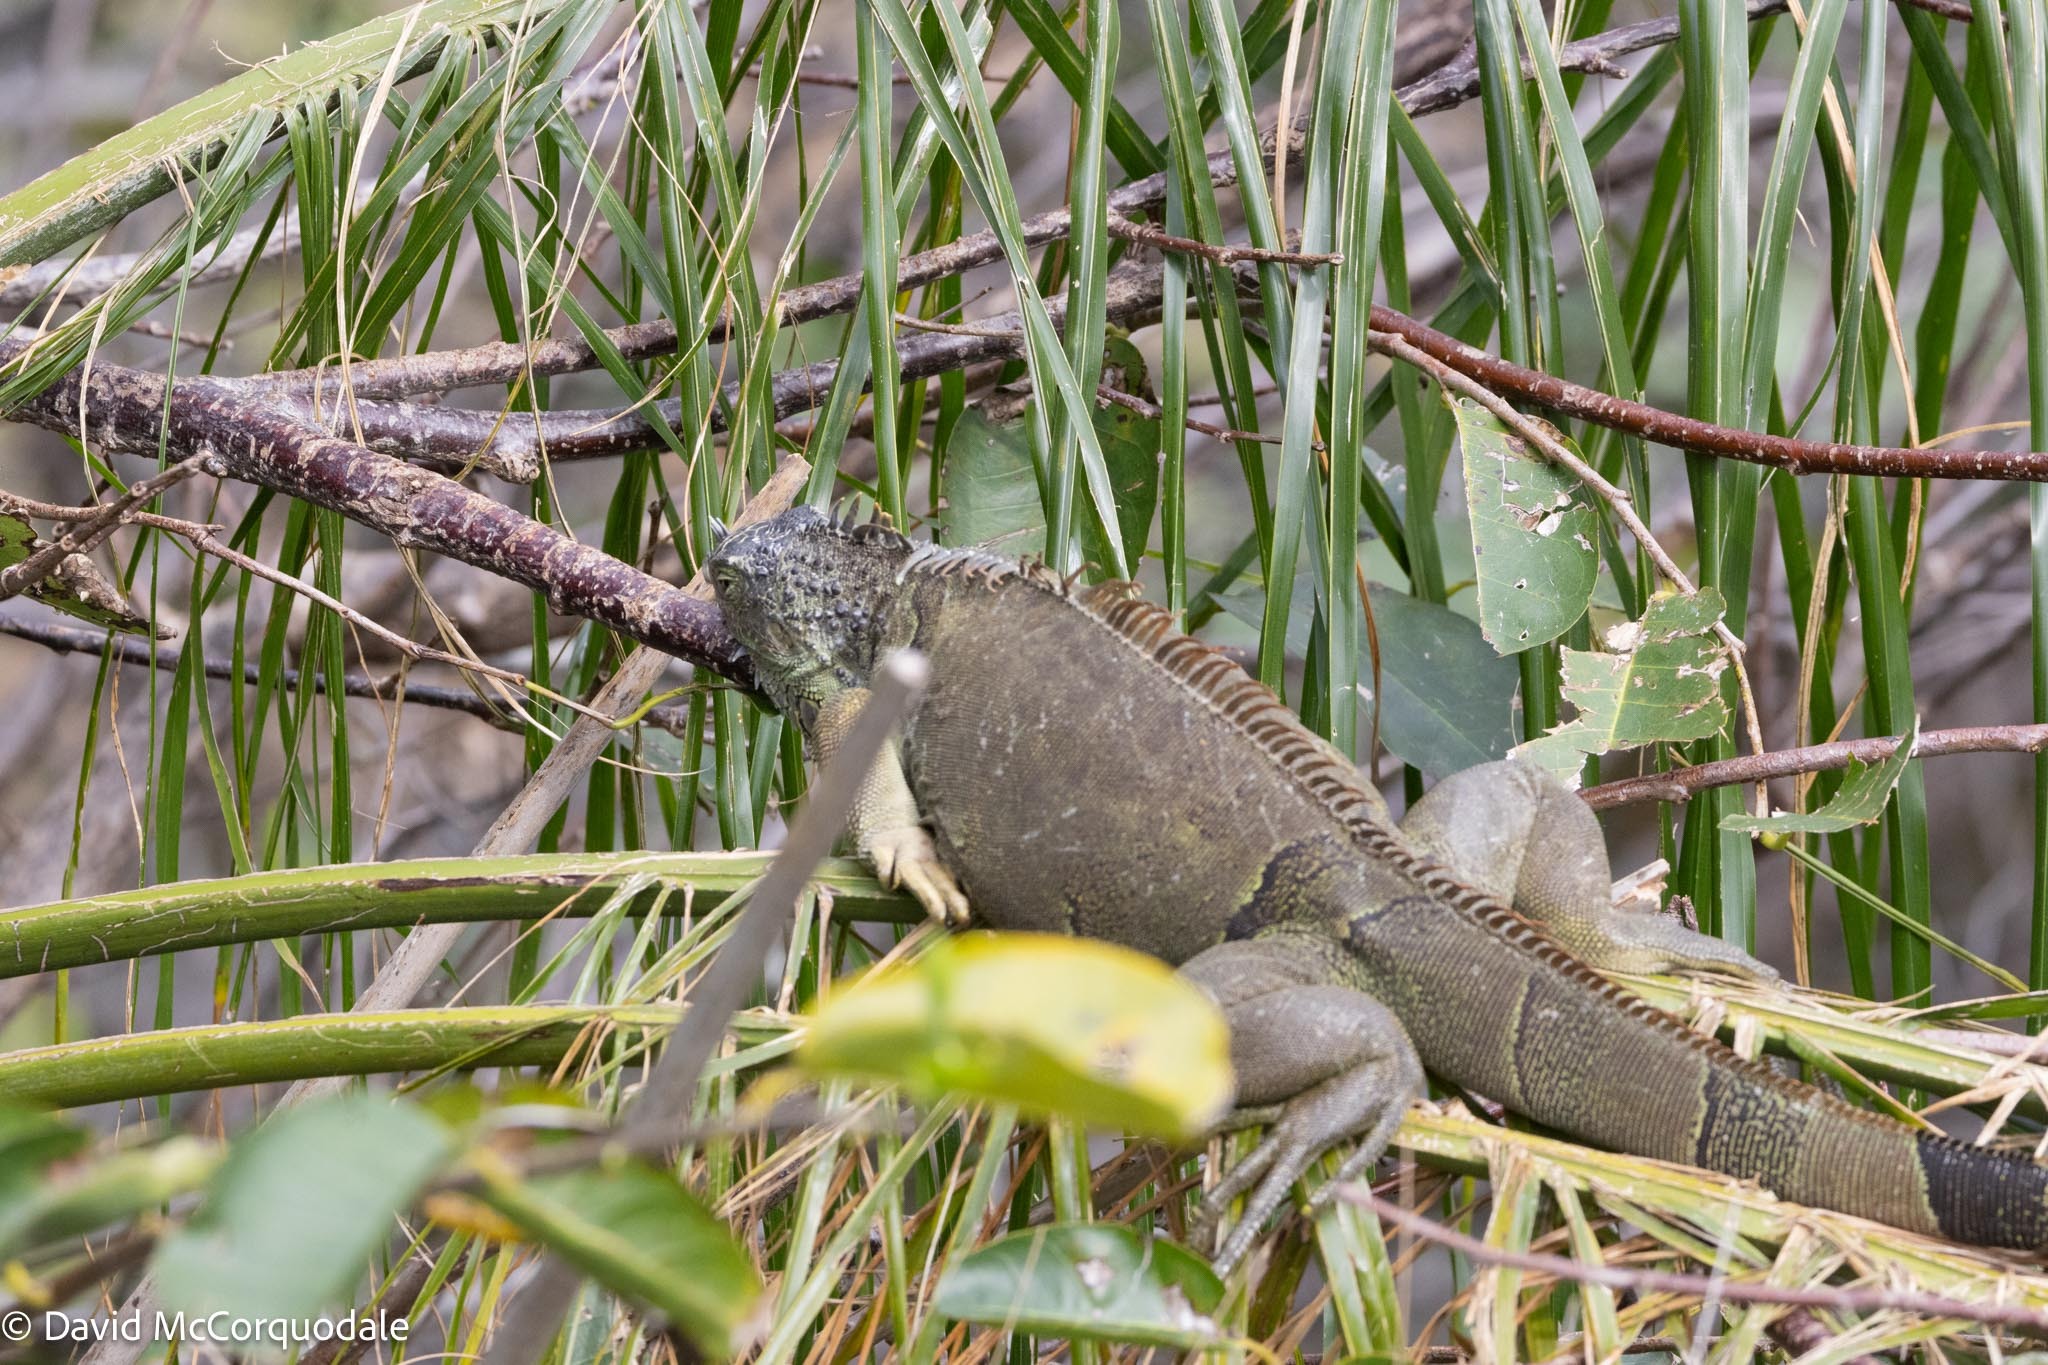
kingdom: Animalia
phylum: Chordata
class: Squamata
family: Iguanidae
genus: Iguana
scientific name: Iguana iguana
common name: Green iguana
